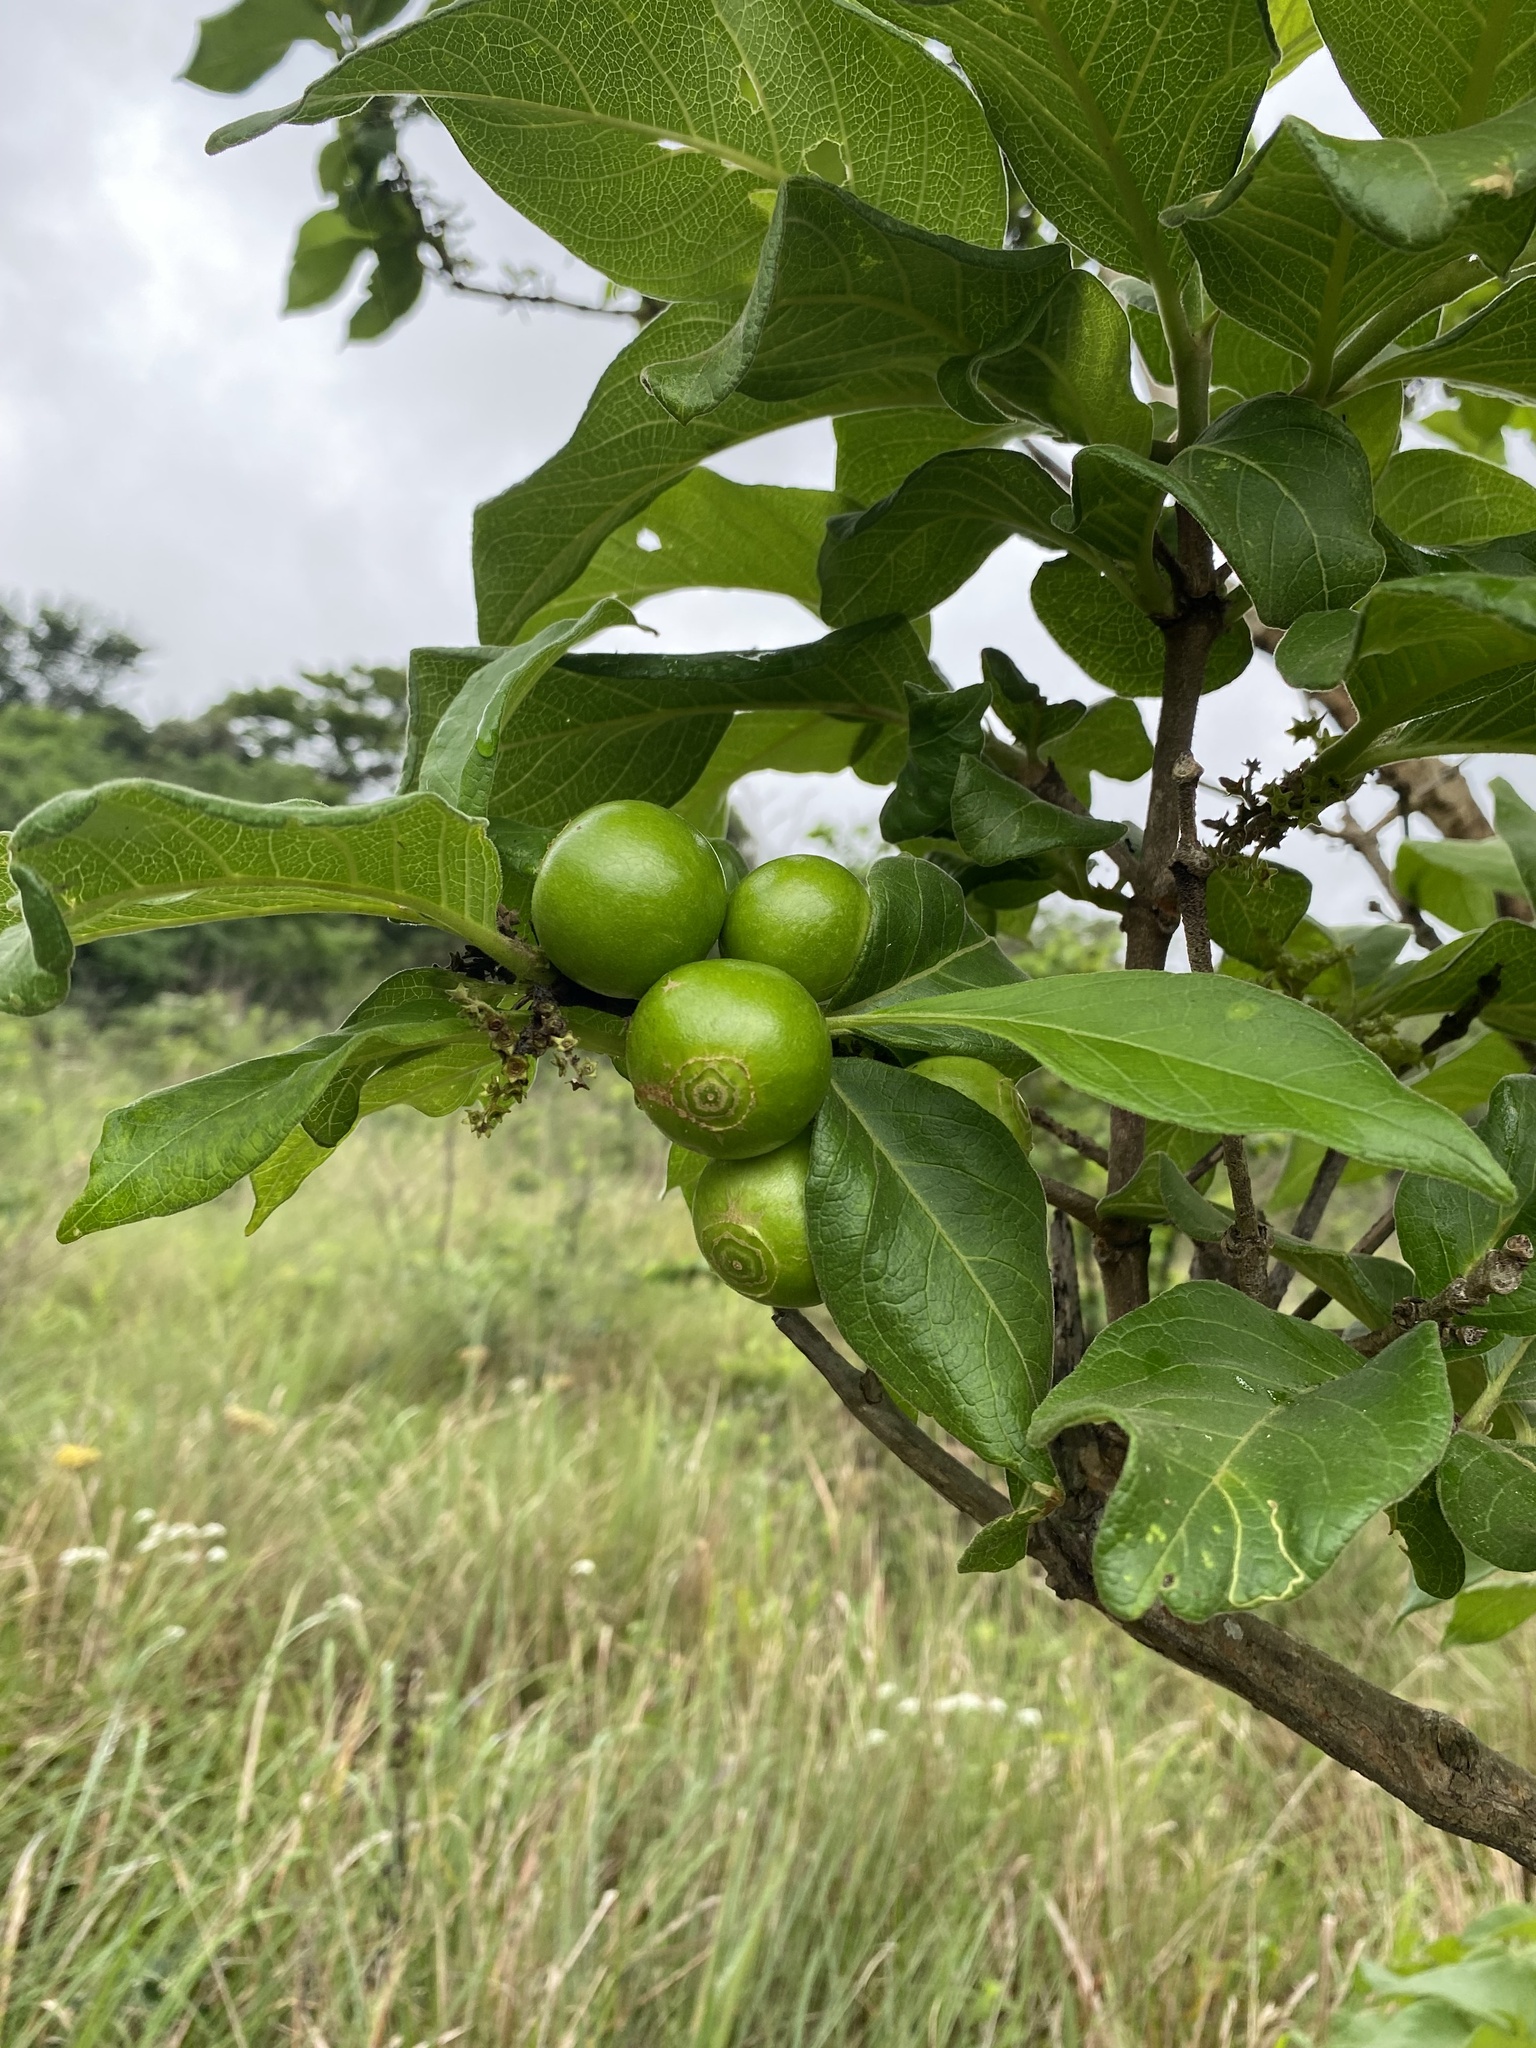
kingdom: Plantae
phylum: Tracheophyta
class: Magnoliopsida
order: Gentianales
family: Rubiaceae
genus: Vangueria
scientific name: Vangueria infausta
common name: Medlar
